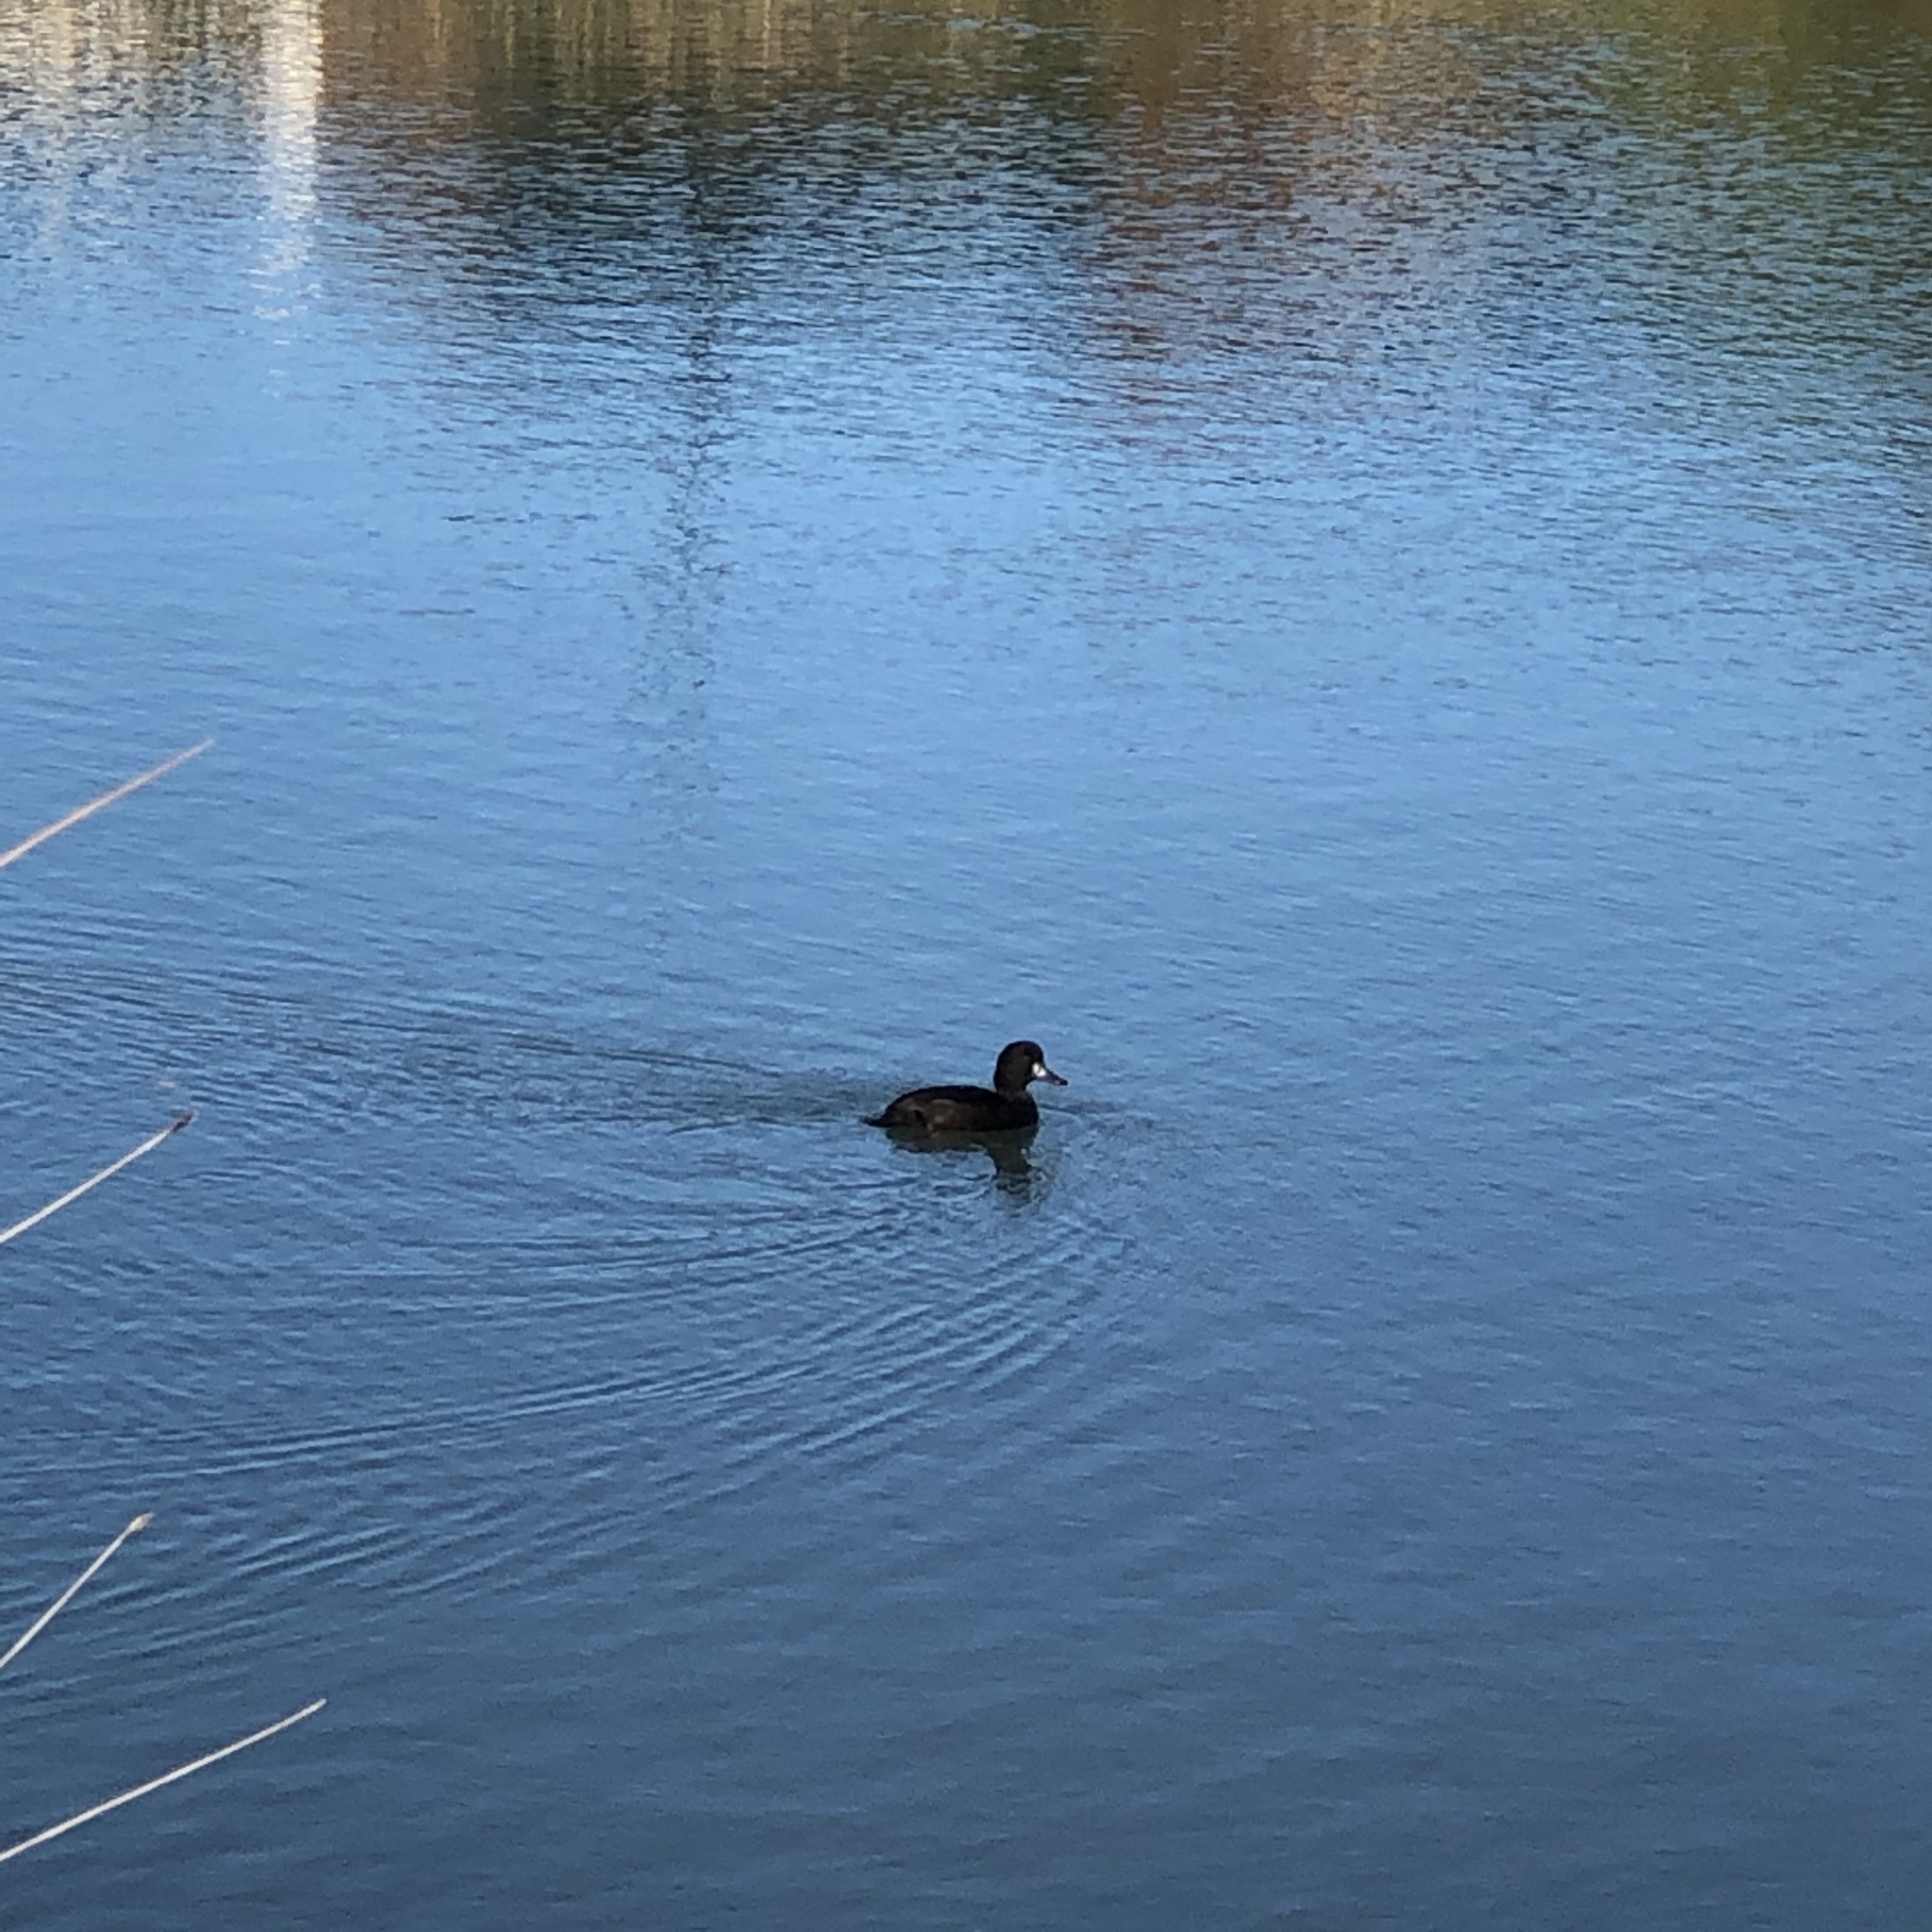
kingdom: Animalia
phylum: Chordata
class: Aves
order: Anseriformes
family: Anatidae
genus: Aythya
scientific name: Aythya novaeseelandiae
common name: New zealand scaup
